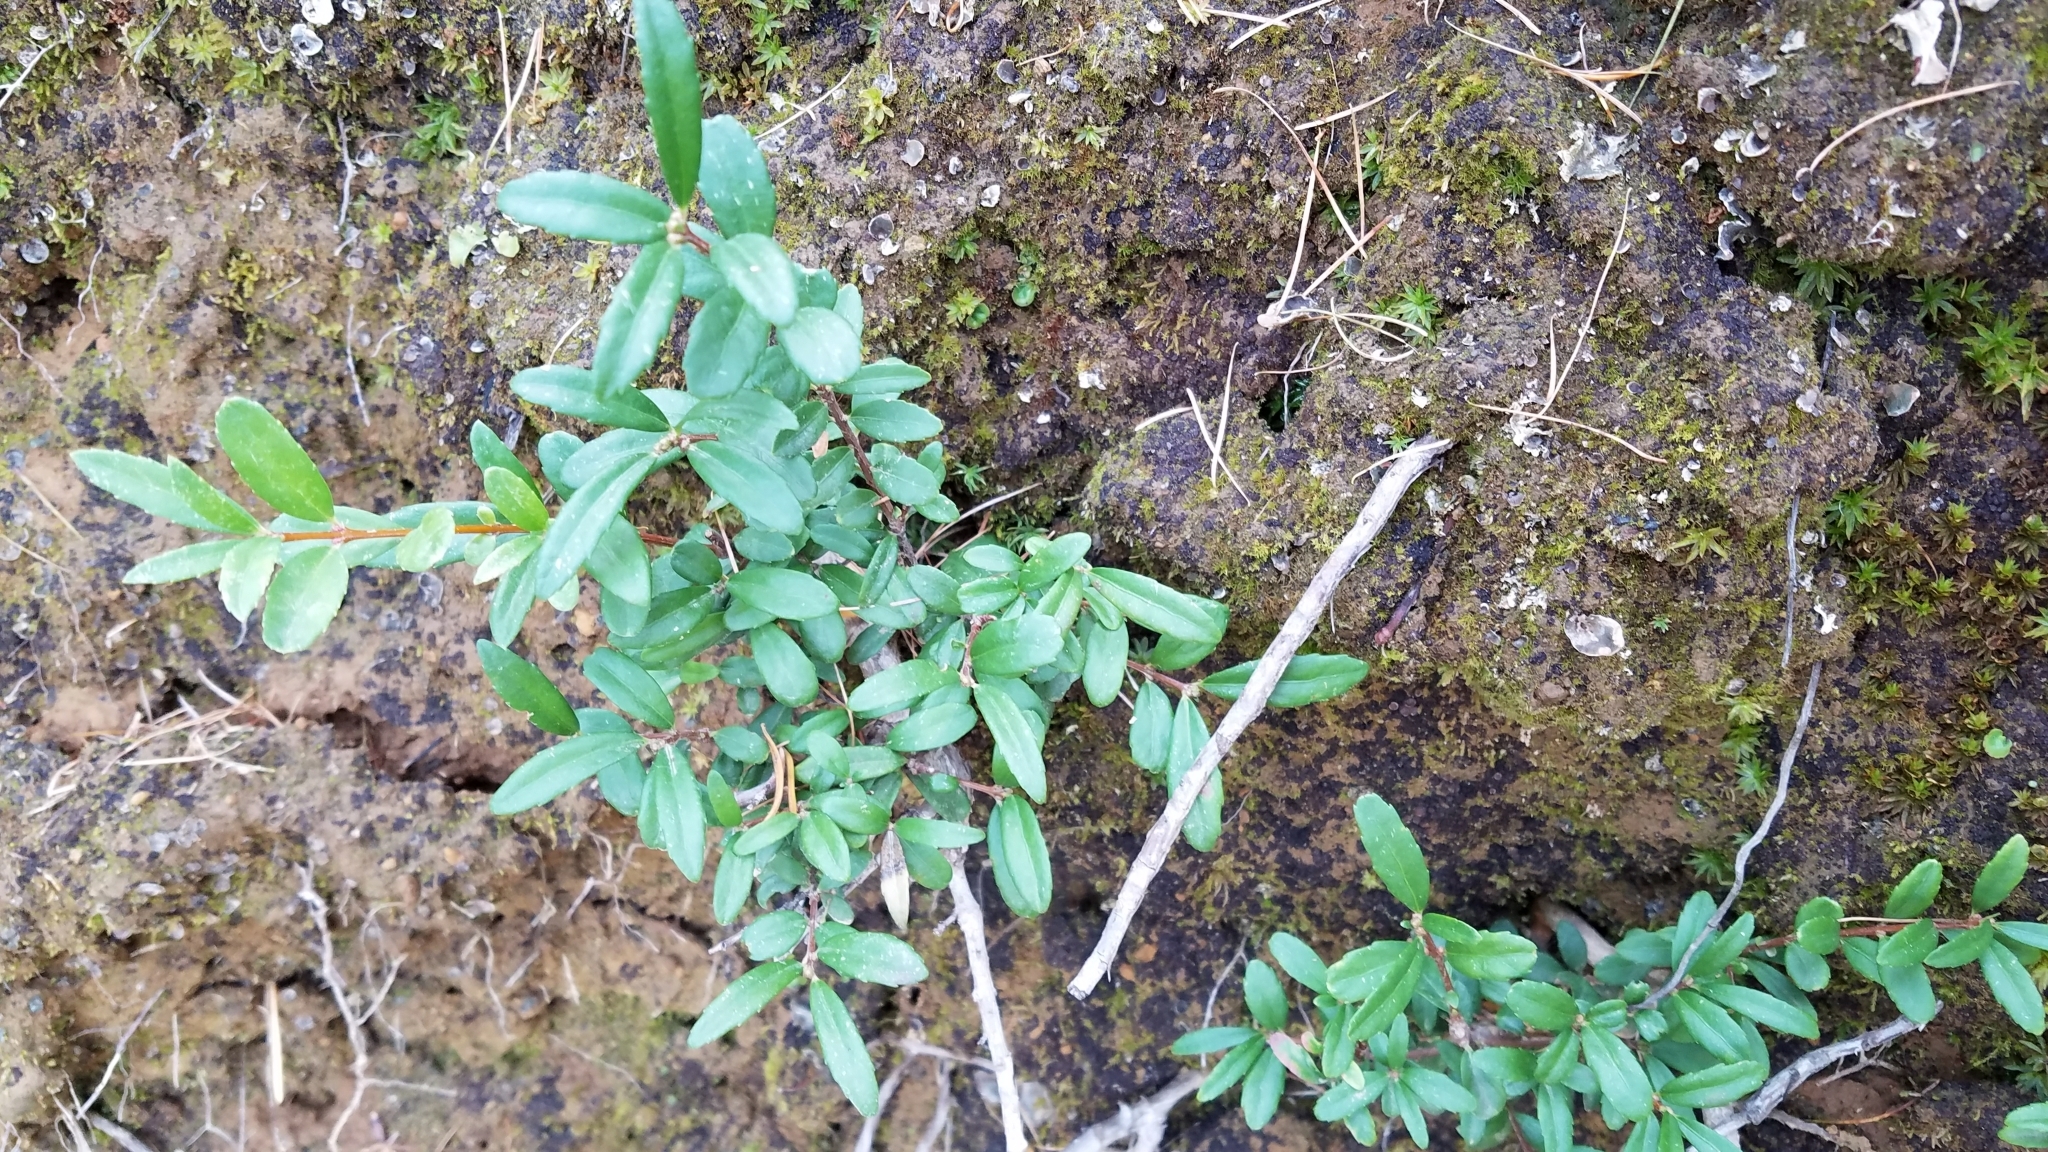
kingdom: Plantae
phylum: Tracheophyta
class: Magnoliopsida
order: Celastrales
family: Celastraceae
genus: Paxistima
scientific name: Paxistima myrsinites
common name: Mountain-lover
